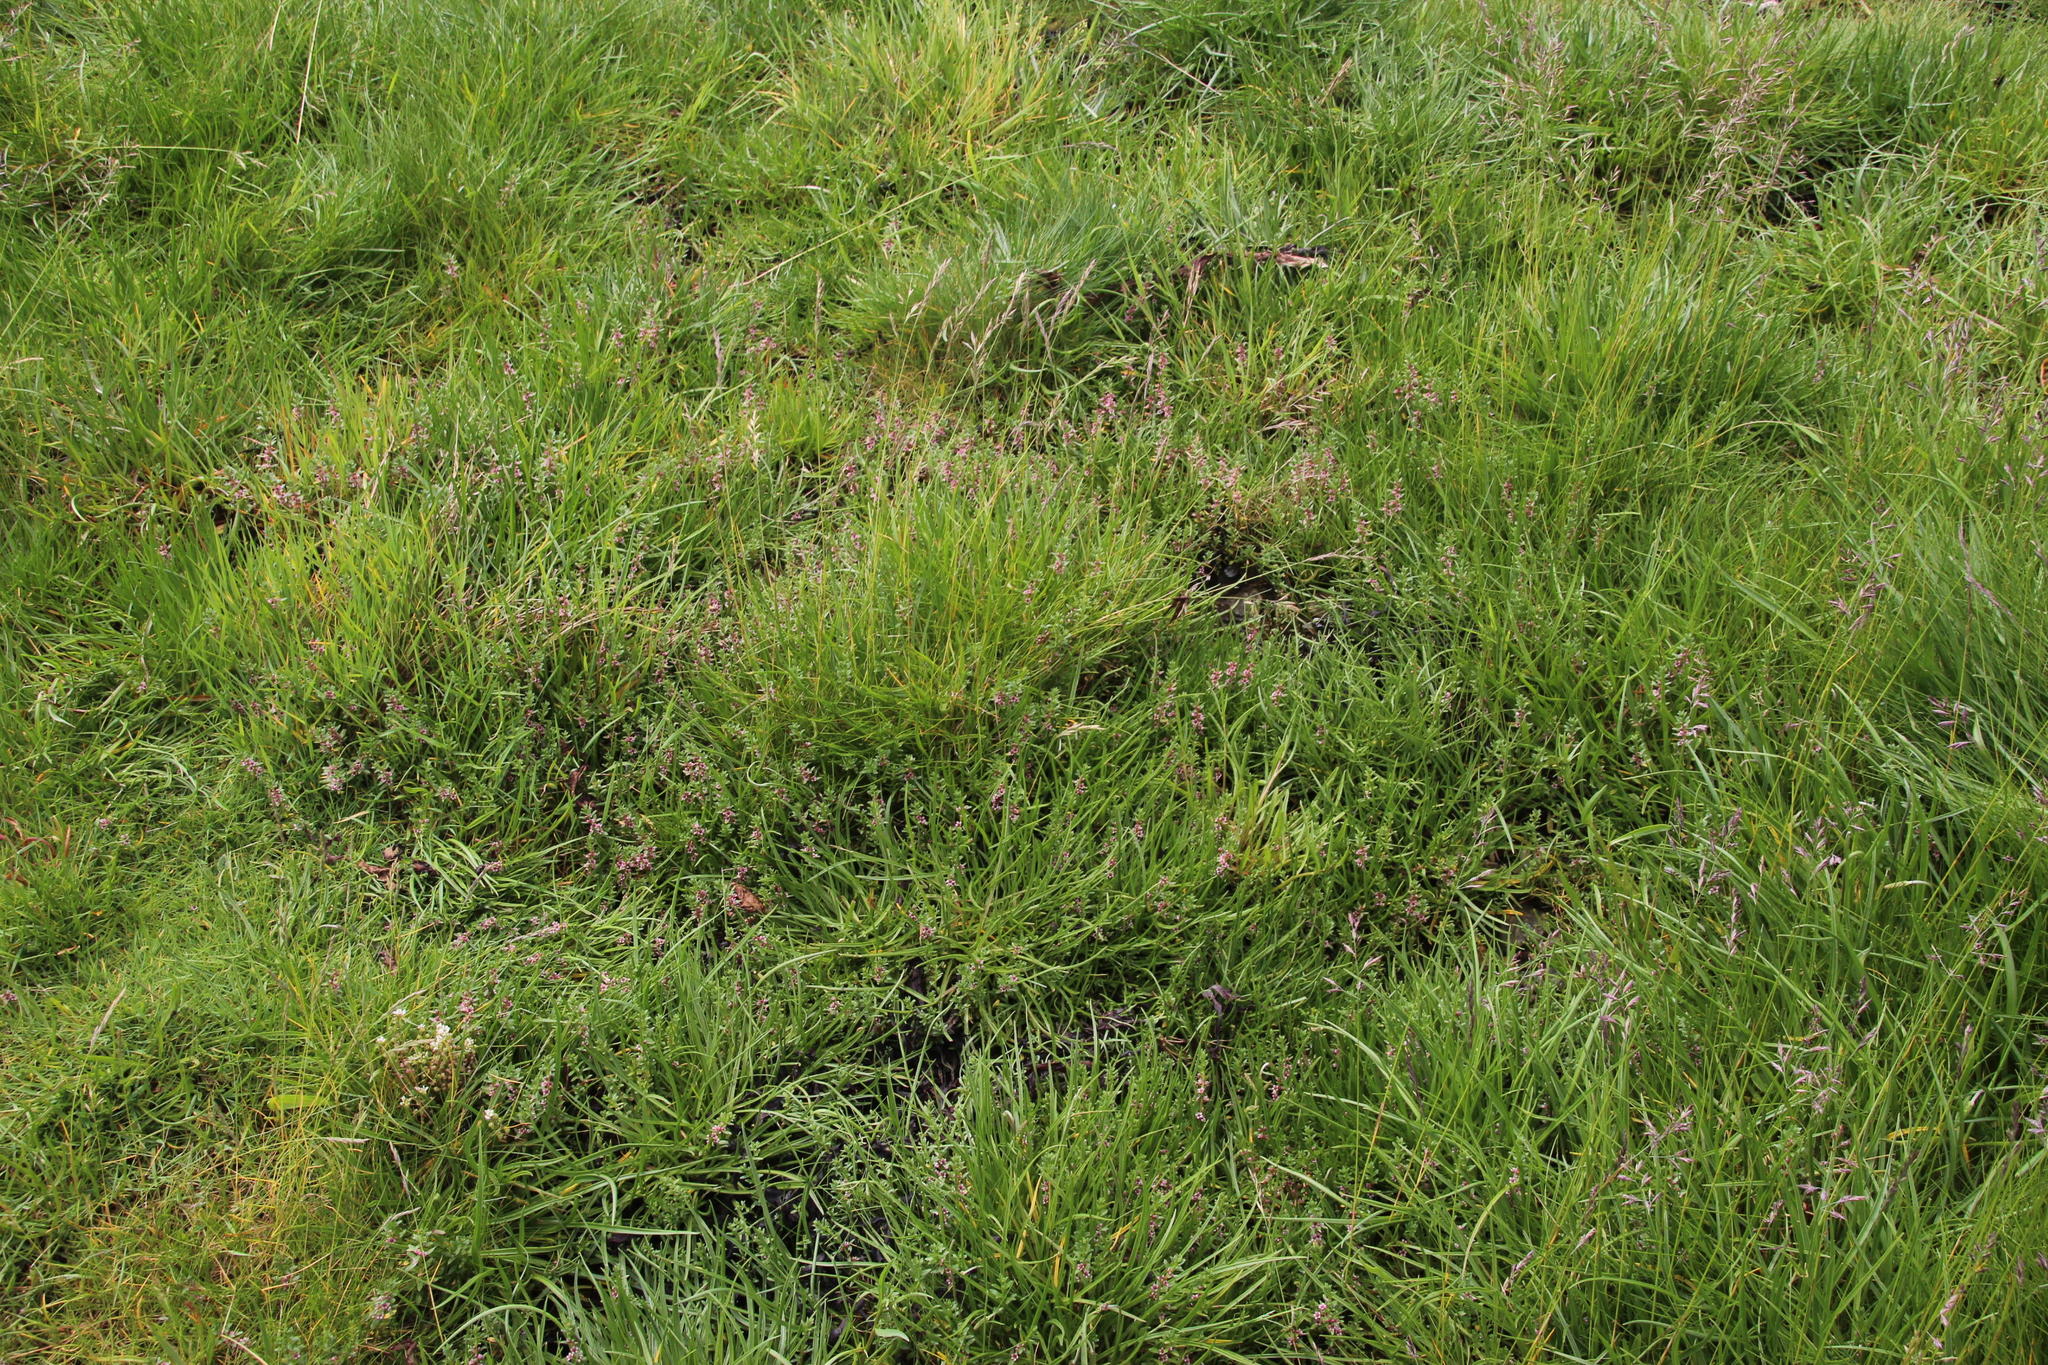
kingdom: Plantae
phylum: Tracheophyta
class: Magnoliopsida
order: Ericales
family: Primulaceae
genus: Lysimachia
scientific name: Lysimachia maritima
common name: Sea milkwort
